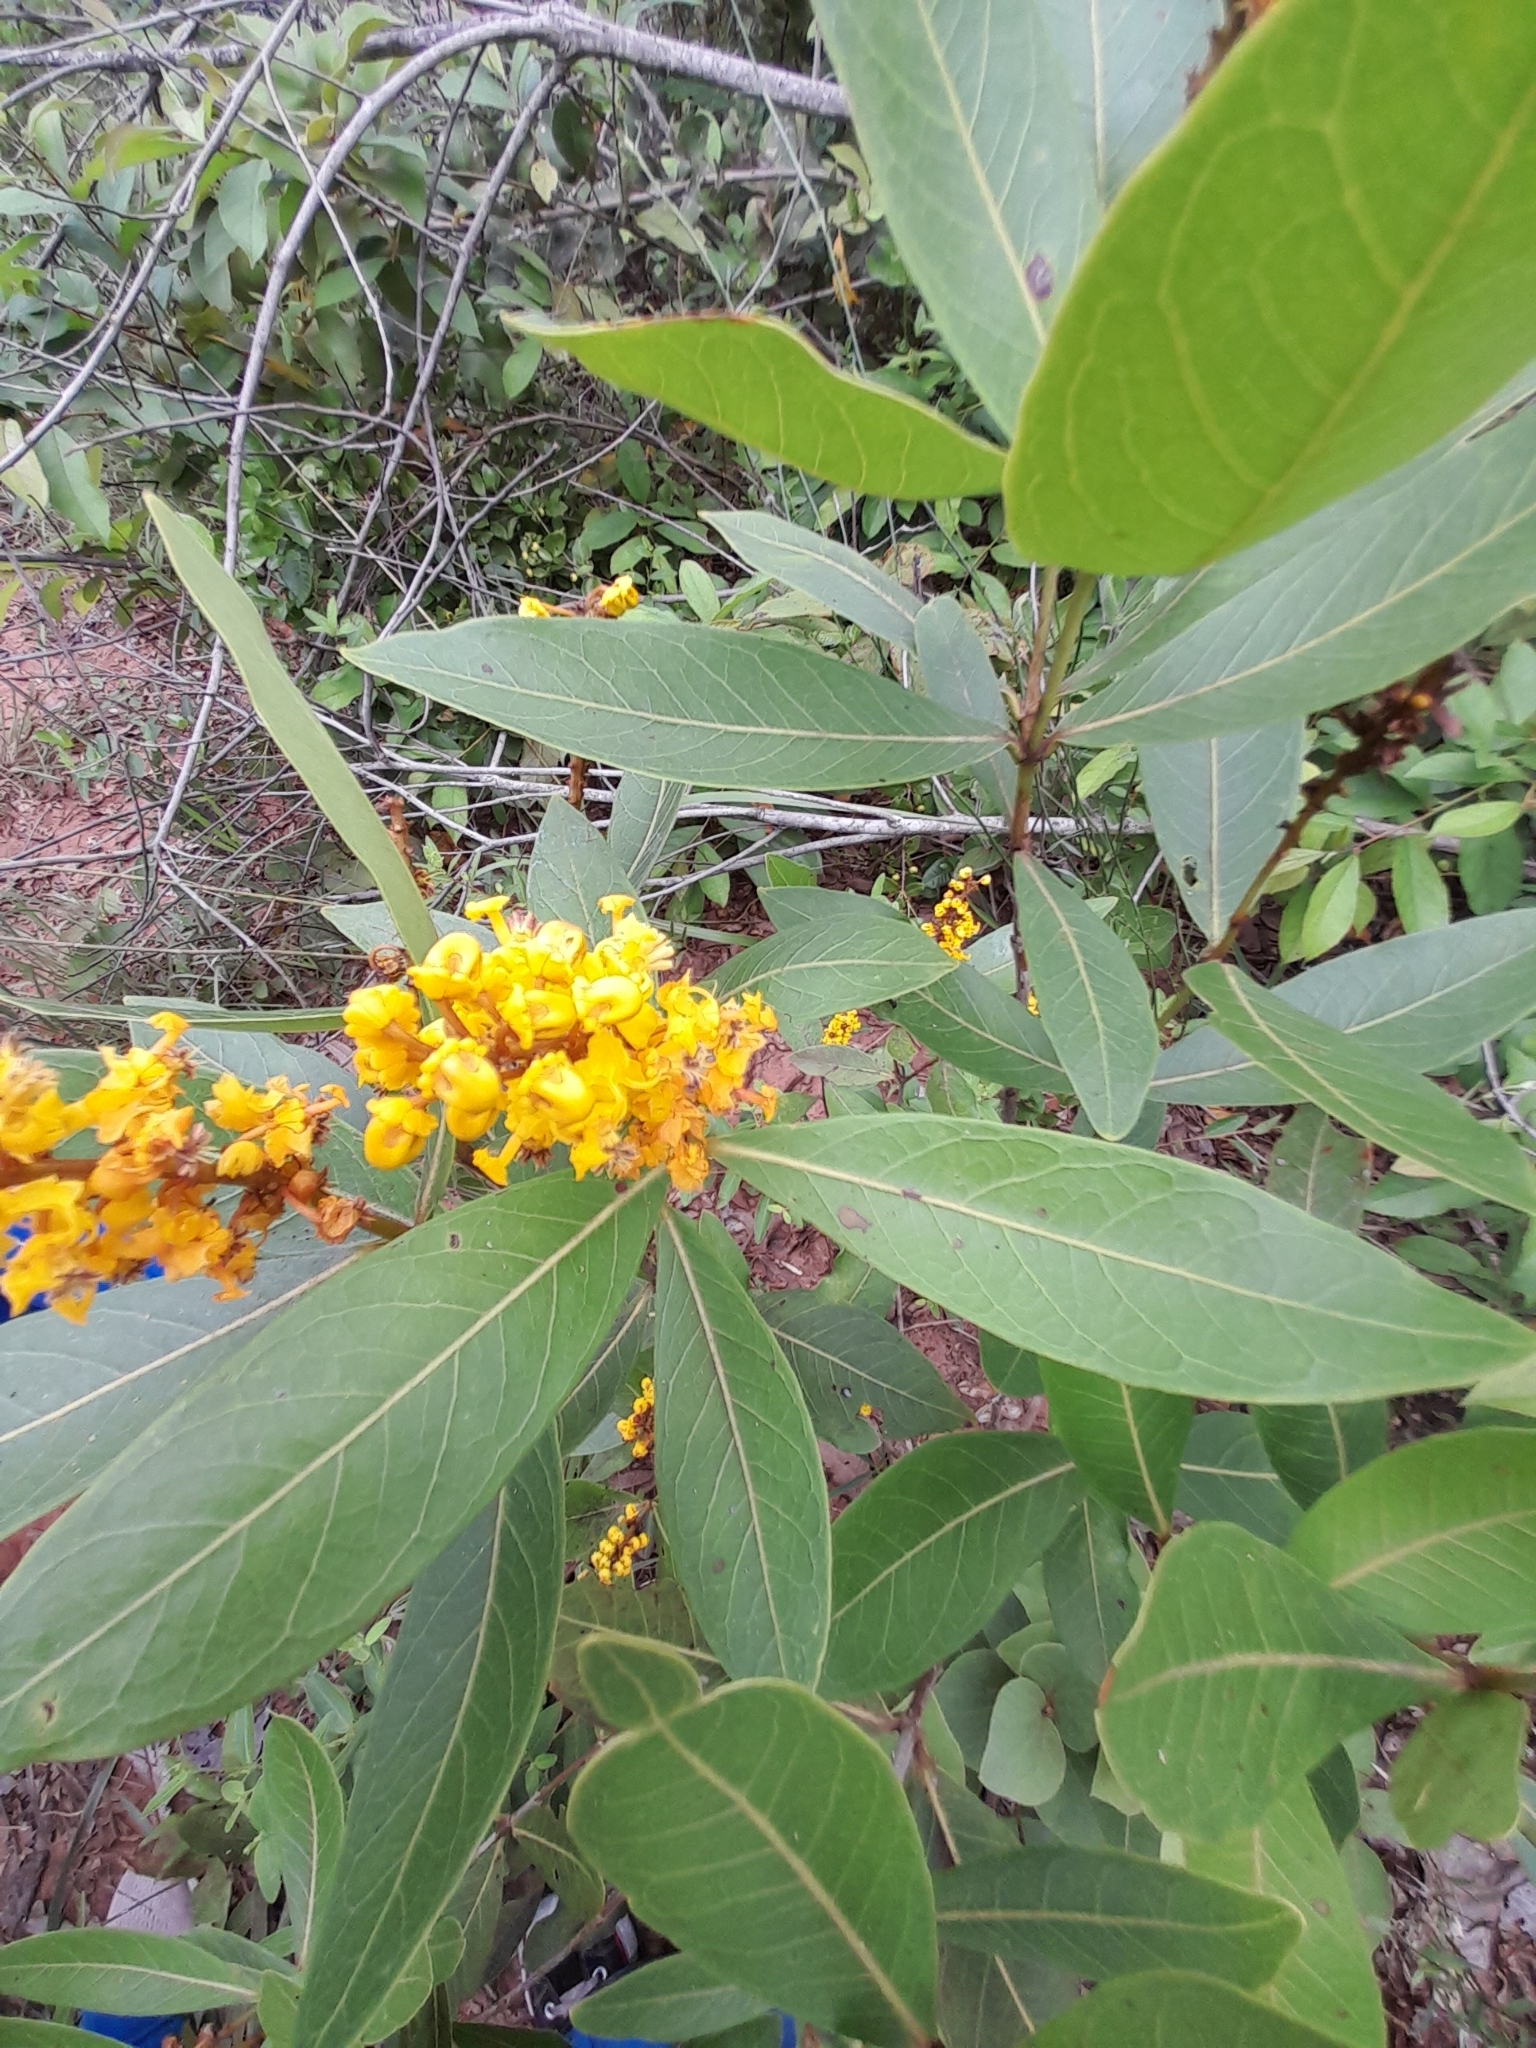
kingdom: Plantae
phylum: Tracheophyta
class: Magnoliopsida
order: Malpighiales
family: Malpighiaceae
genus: Byrsonima
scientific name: Byrsonima intermedia
